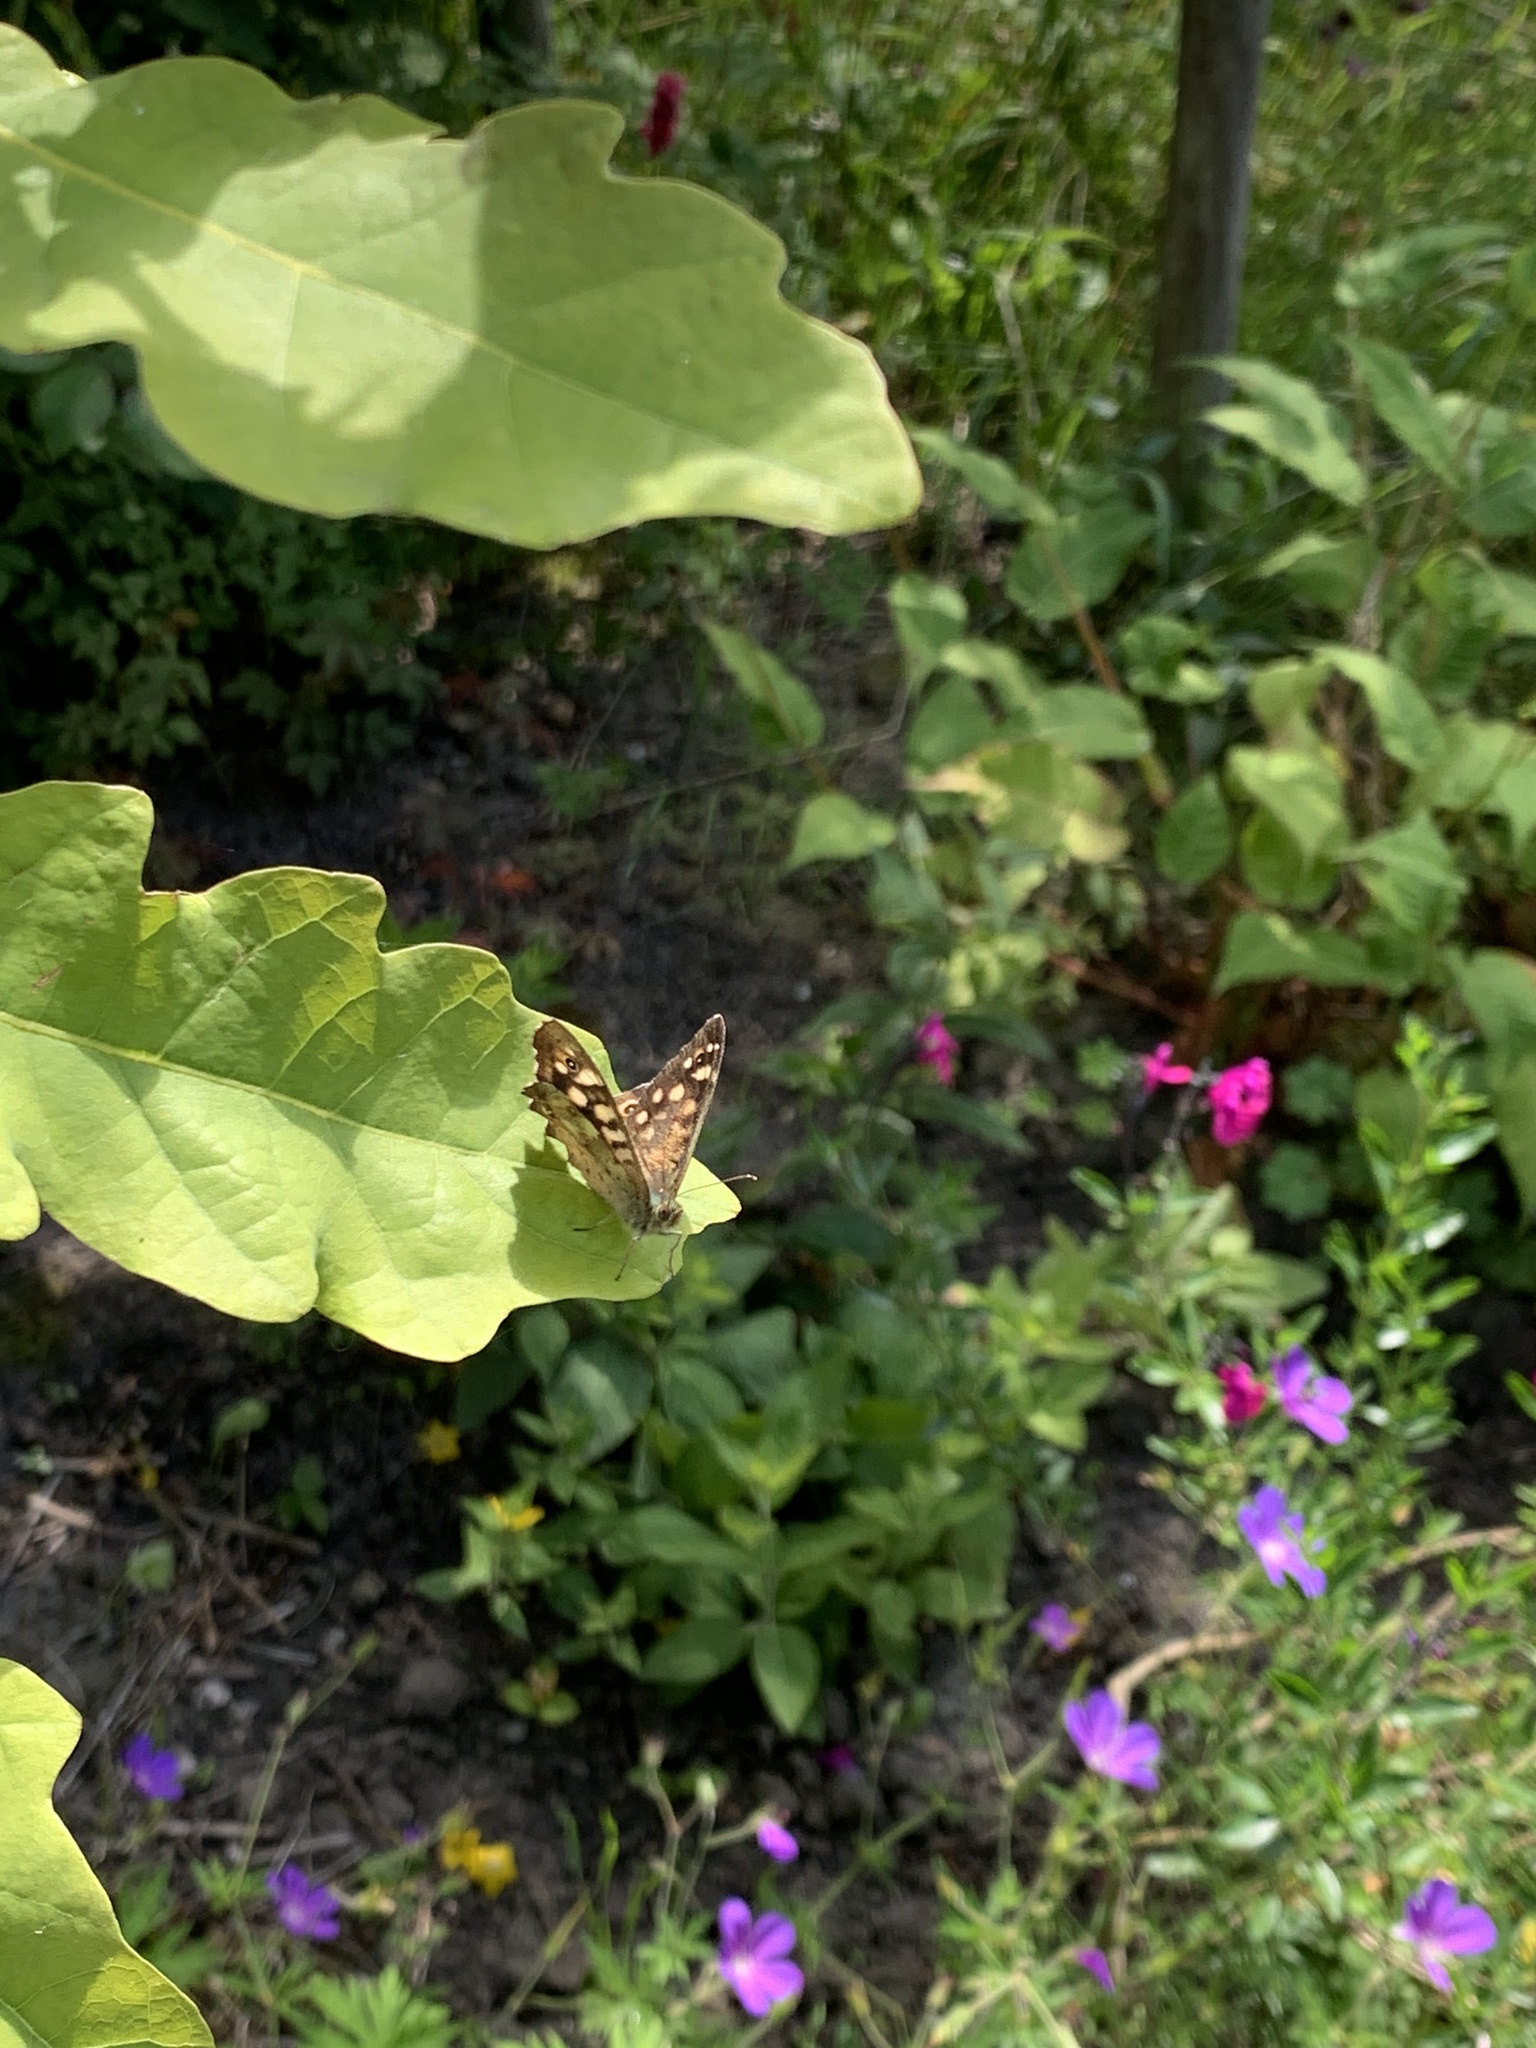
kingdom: Animalia
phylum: Arthropoda
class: Insecta
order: Lepidoptera
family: Nymphalidae
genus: Pararge
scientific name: Pararge aegeria
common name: Speckled wood
